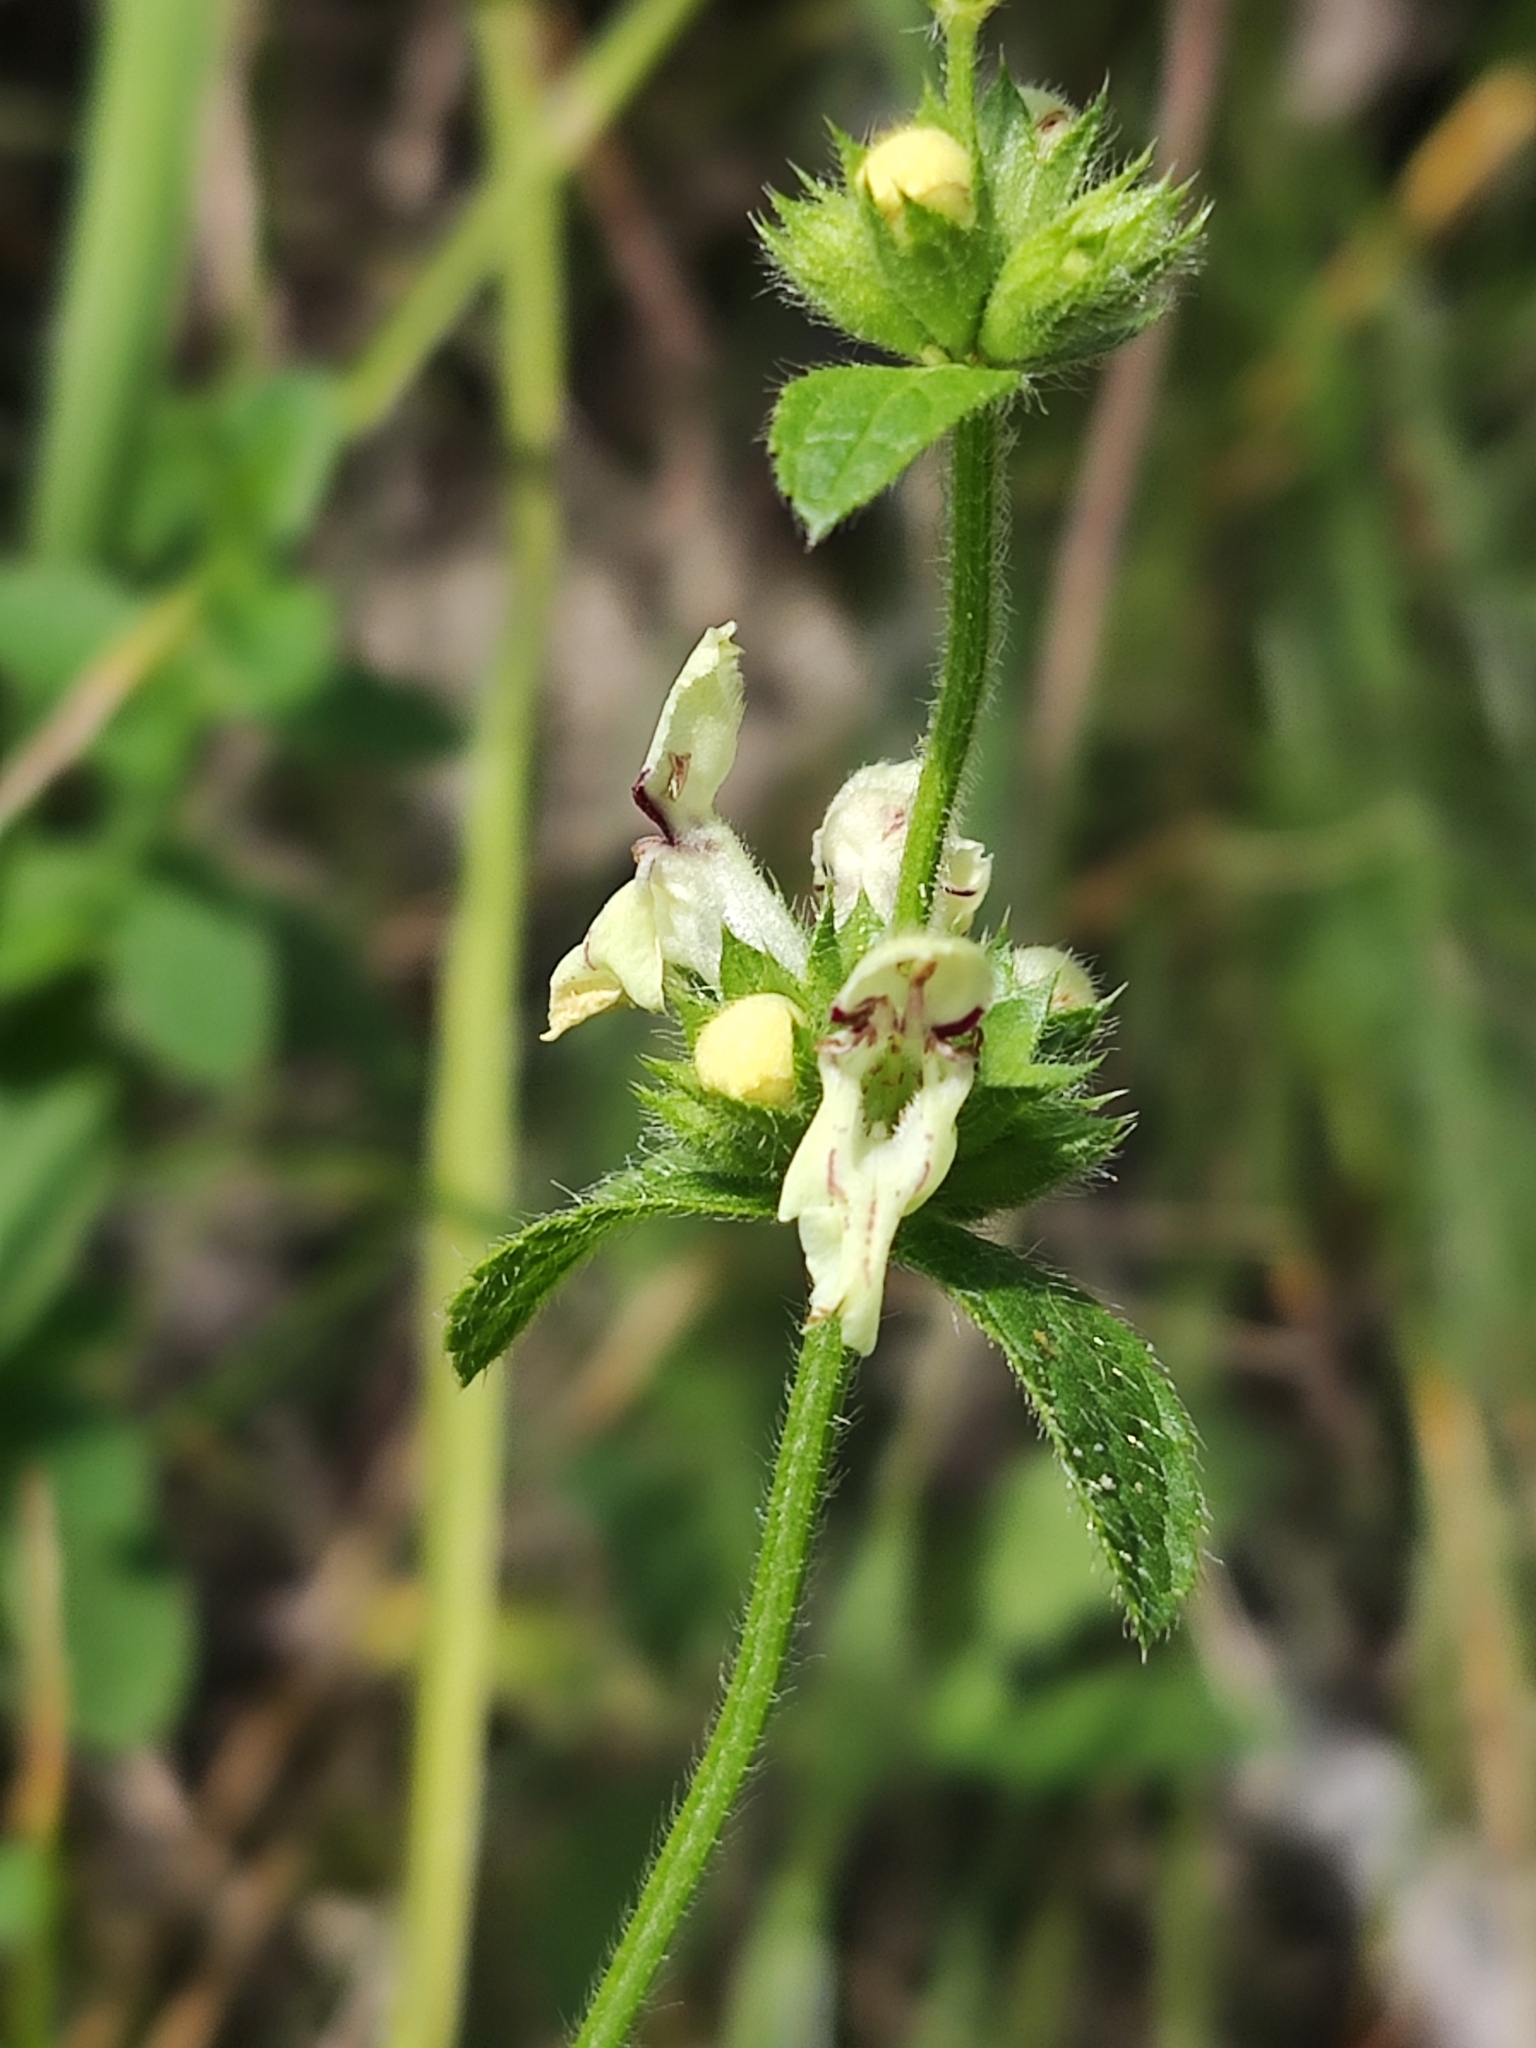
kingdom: Plantae
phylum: Tracheophyta
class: Magnoliopsida
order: Lamiales
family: Lamiaceae
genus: Stachys
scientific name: Stachys recta
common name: Perennial yellow-woundwort
